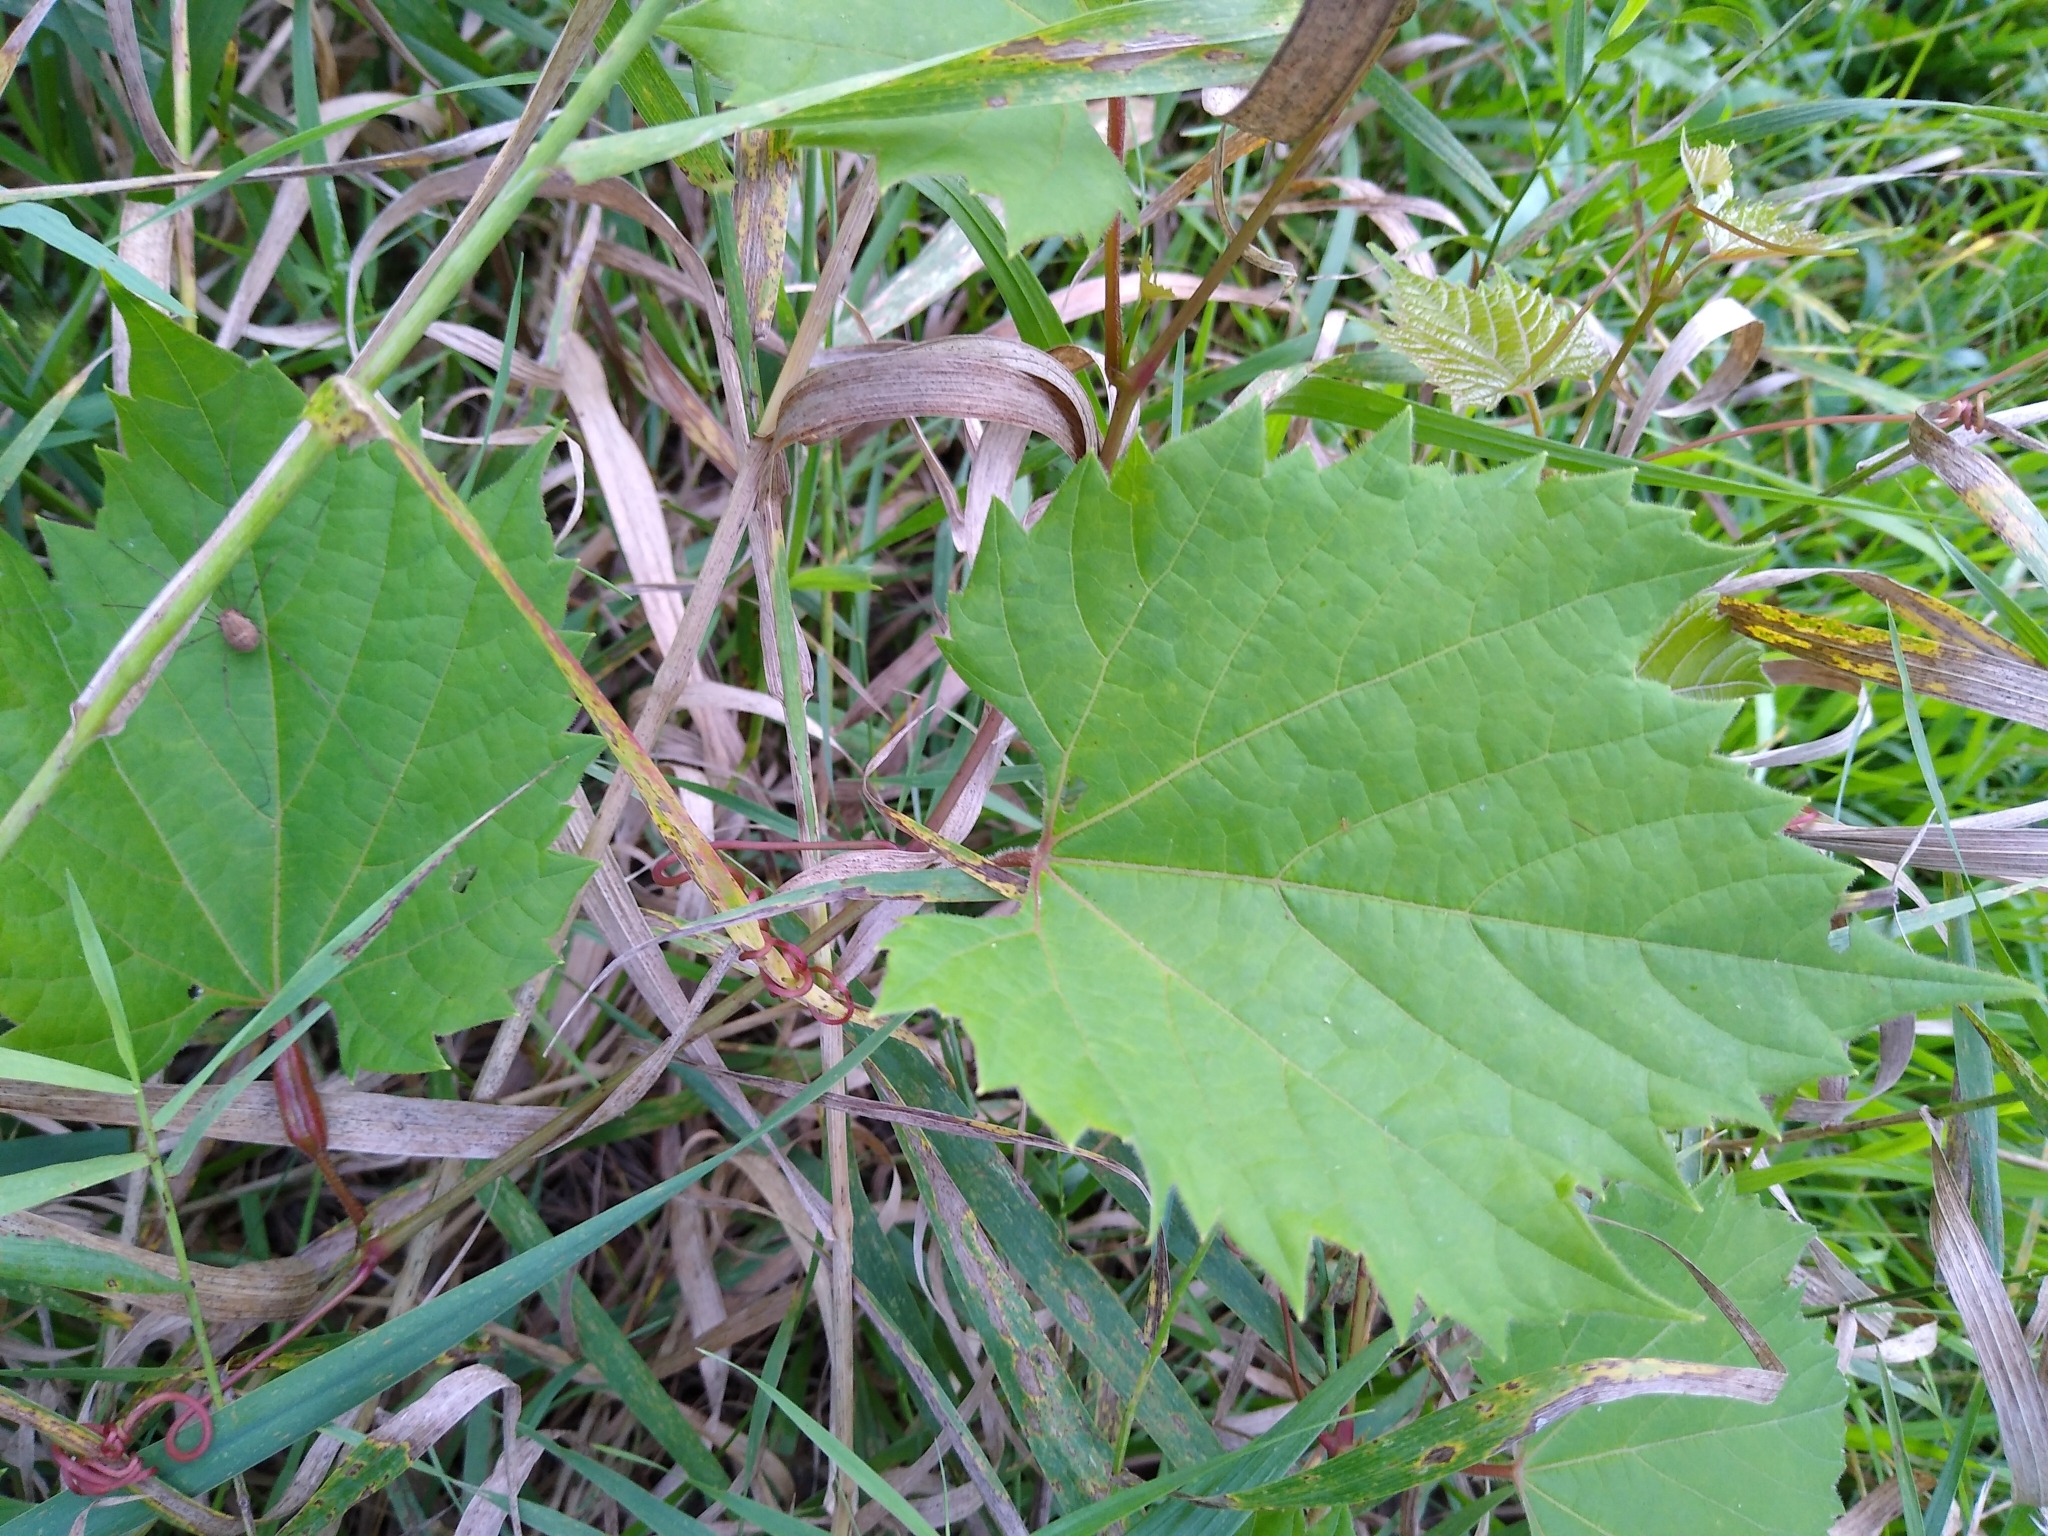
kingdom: Plantae
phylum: Tracheophyta
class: Magnoliopsida
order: Vitales
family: Vitaceae
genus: Vitis
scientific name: Vitis riparia
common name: Frost grape
